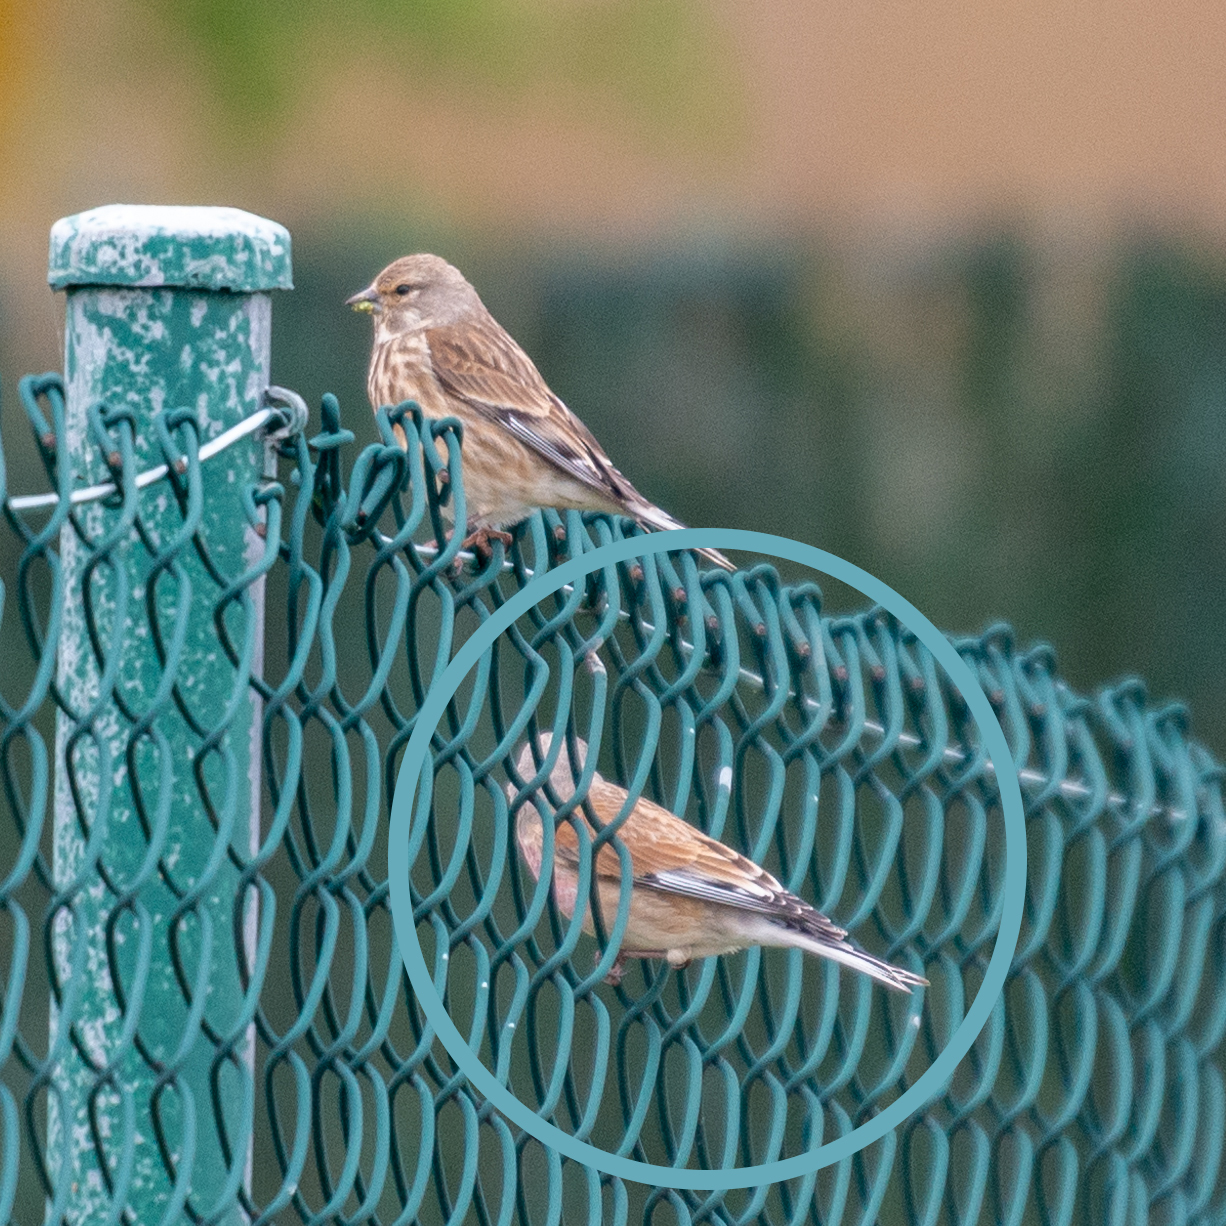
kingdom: Animalia
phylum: Chordata
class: Aves
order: Passeriformes
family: Fringillidae
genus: Linaria
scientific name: Linaria cannabina
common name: Common linnet
